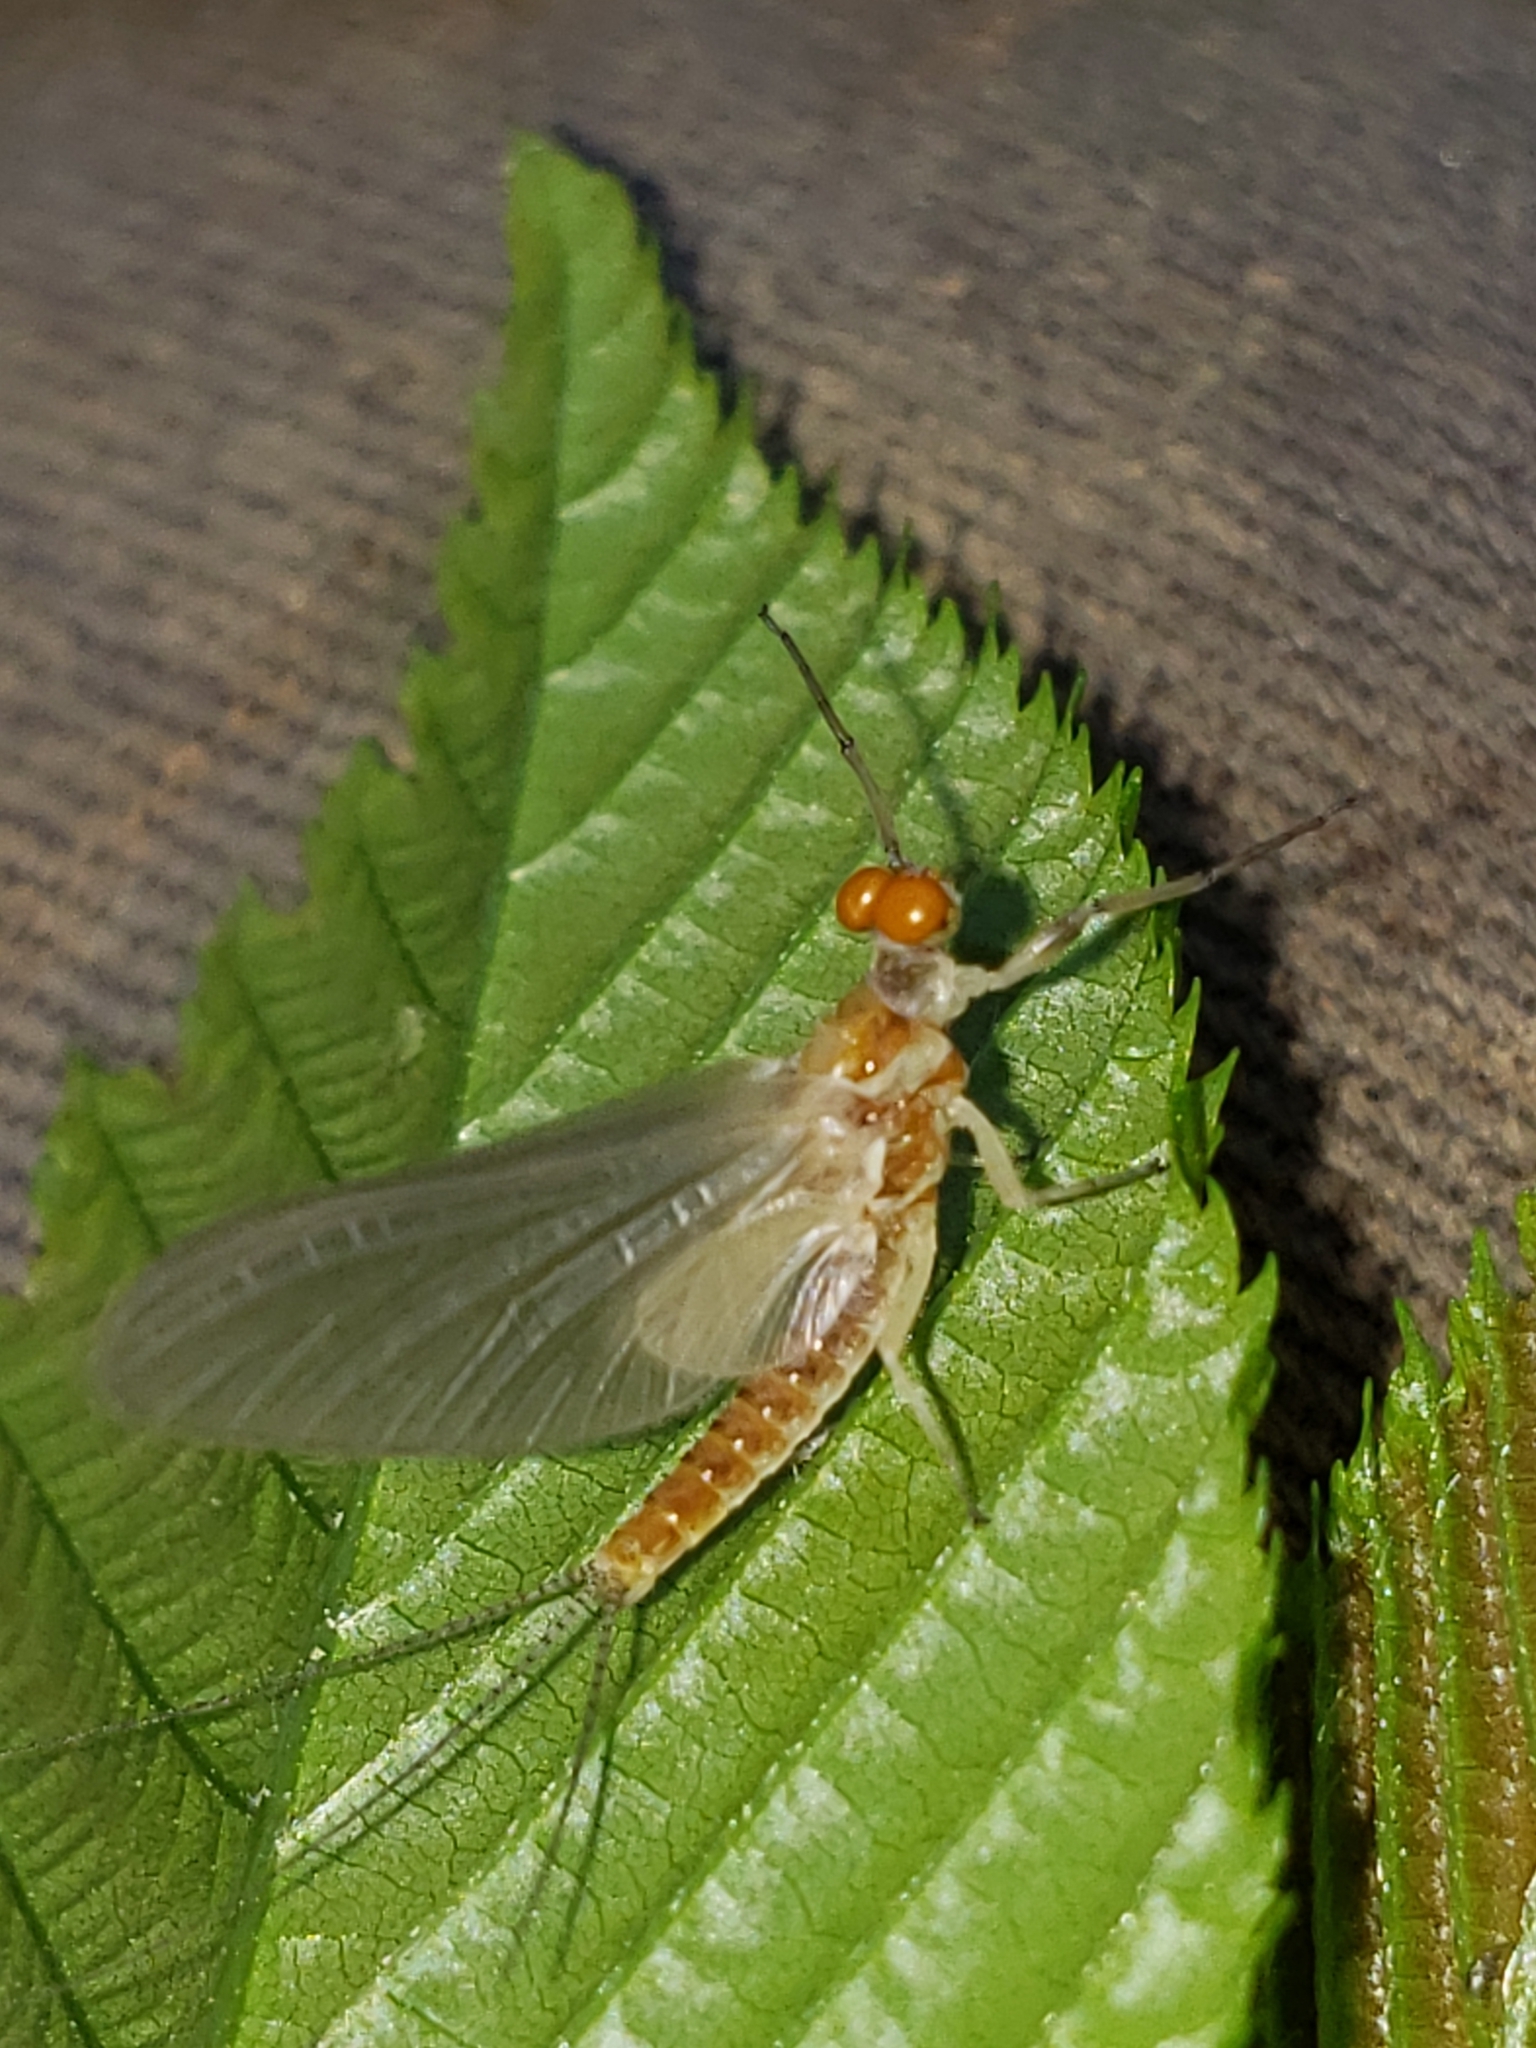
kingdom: Animalia
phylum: Arthropoda
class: Insecta
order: Ephemeroptera
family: Ephemerellidae
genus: Ephemerella
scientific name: Ephemerella invaria
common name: Sulphur dun
